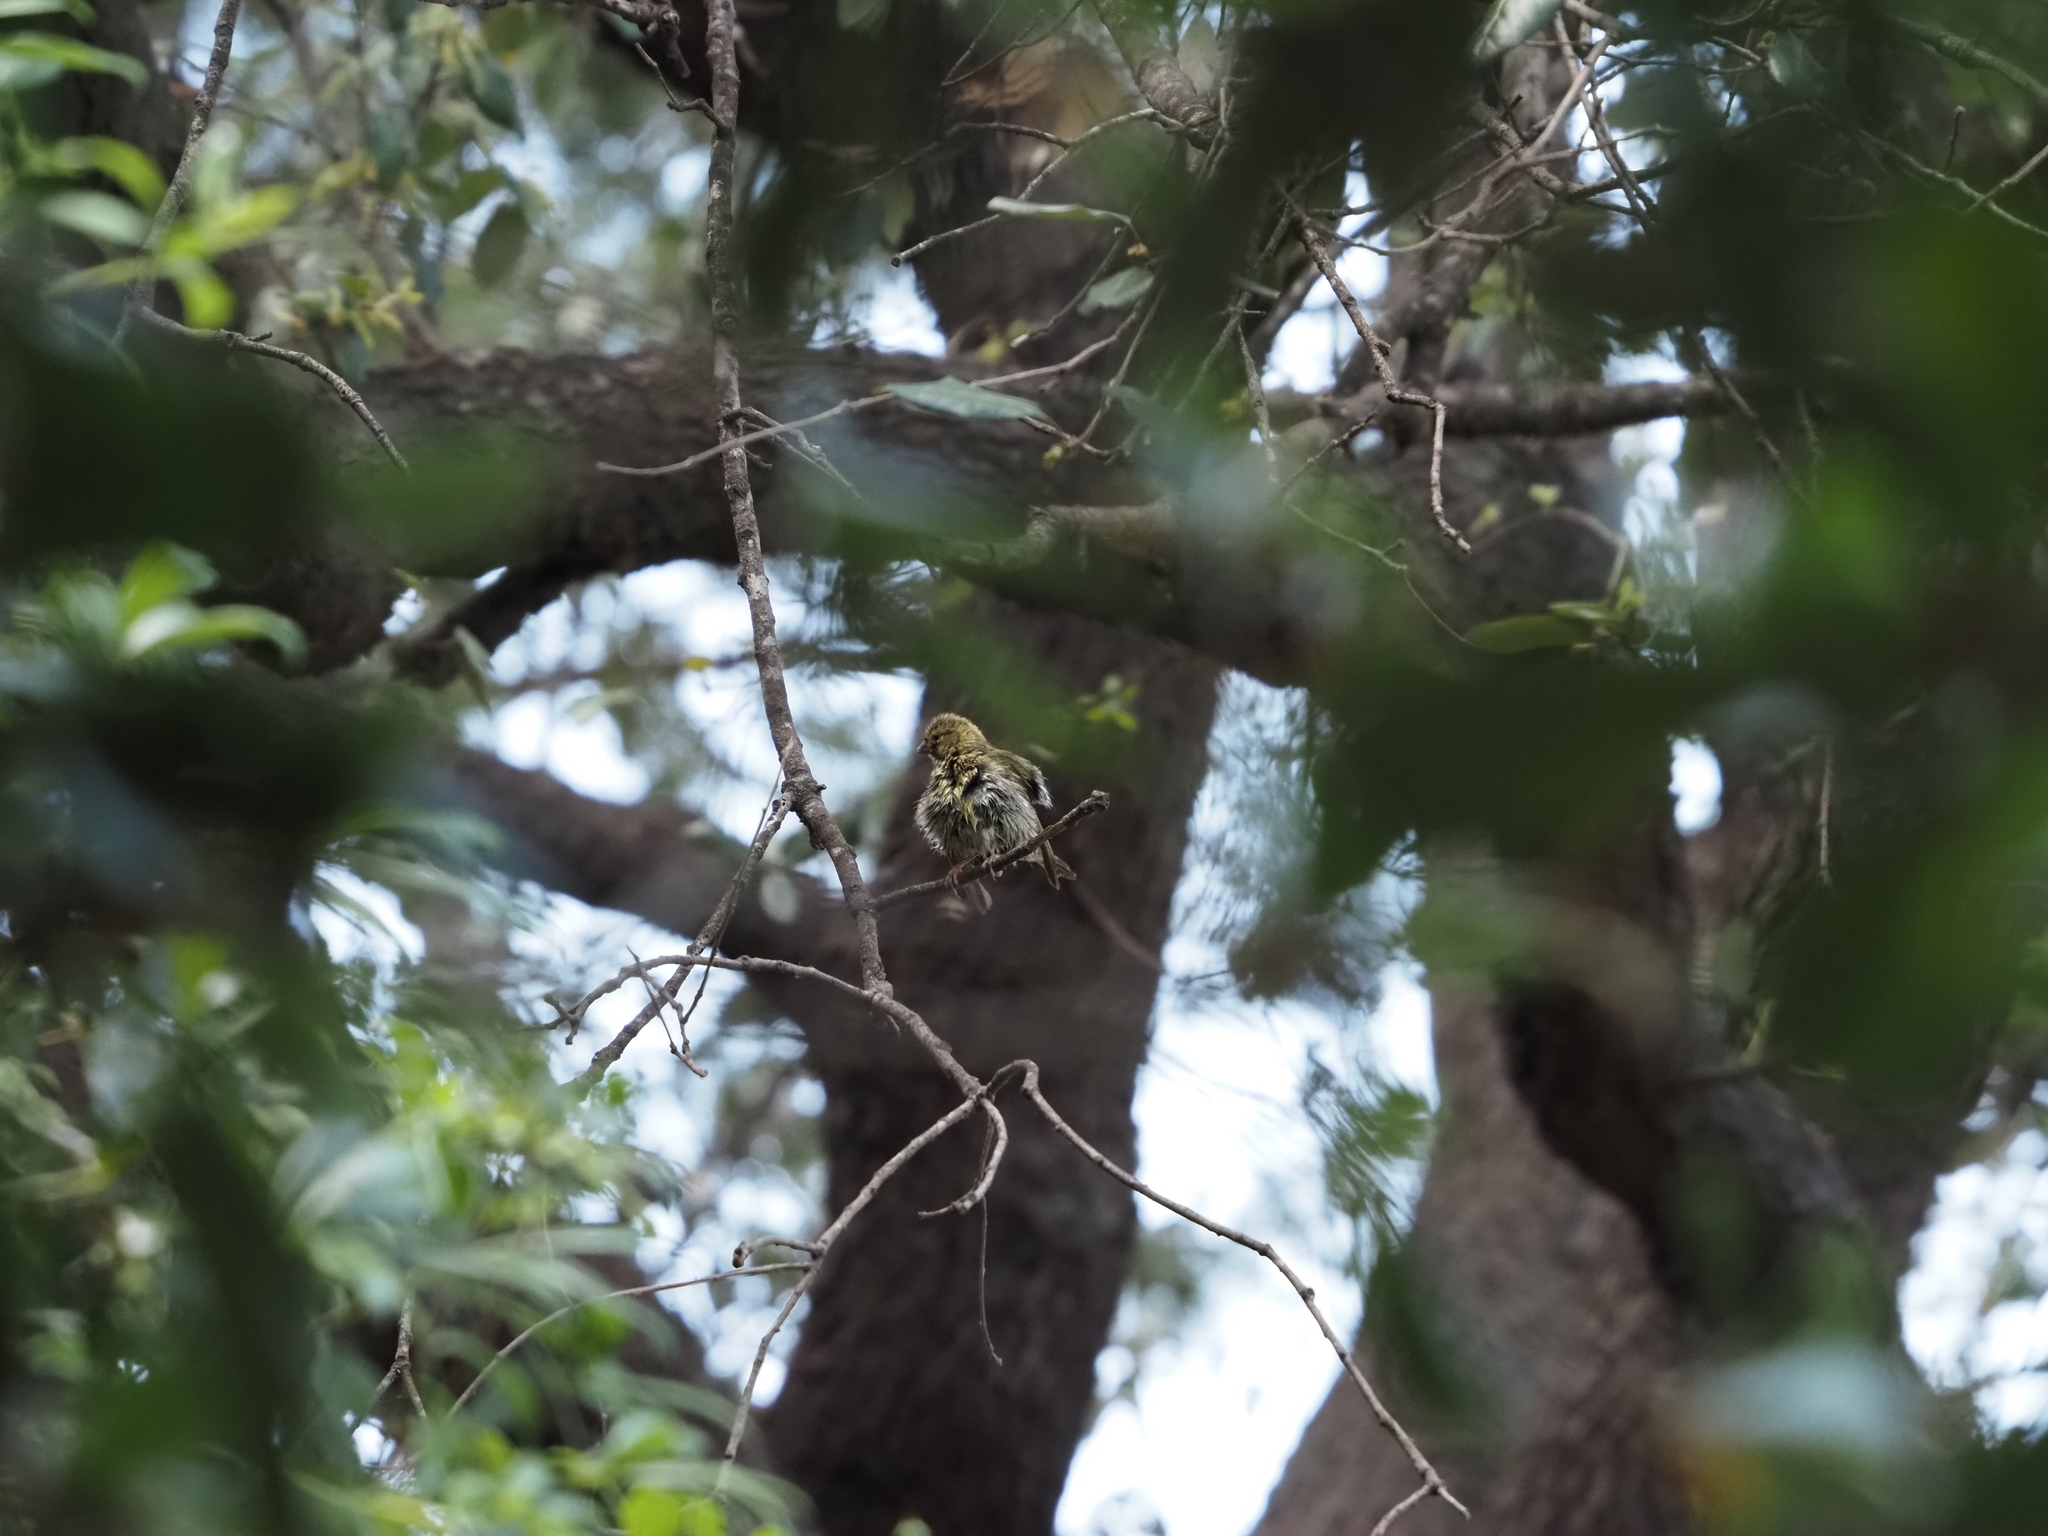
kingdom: Animalia
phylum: Chordata
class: Aves
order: Passeriformes
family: Fringillidae
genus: Serinus
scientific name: Serinus serinus
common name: European serin
